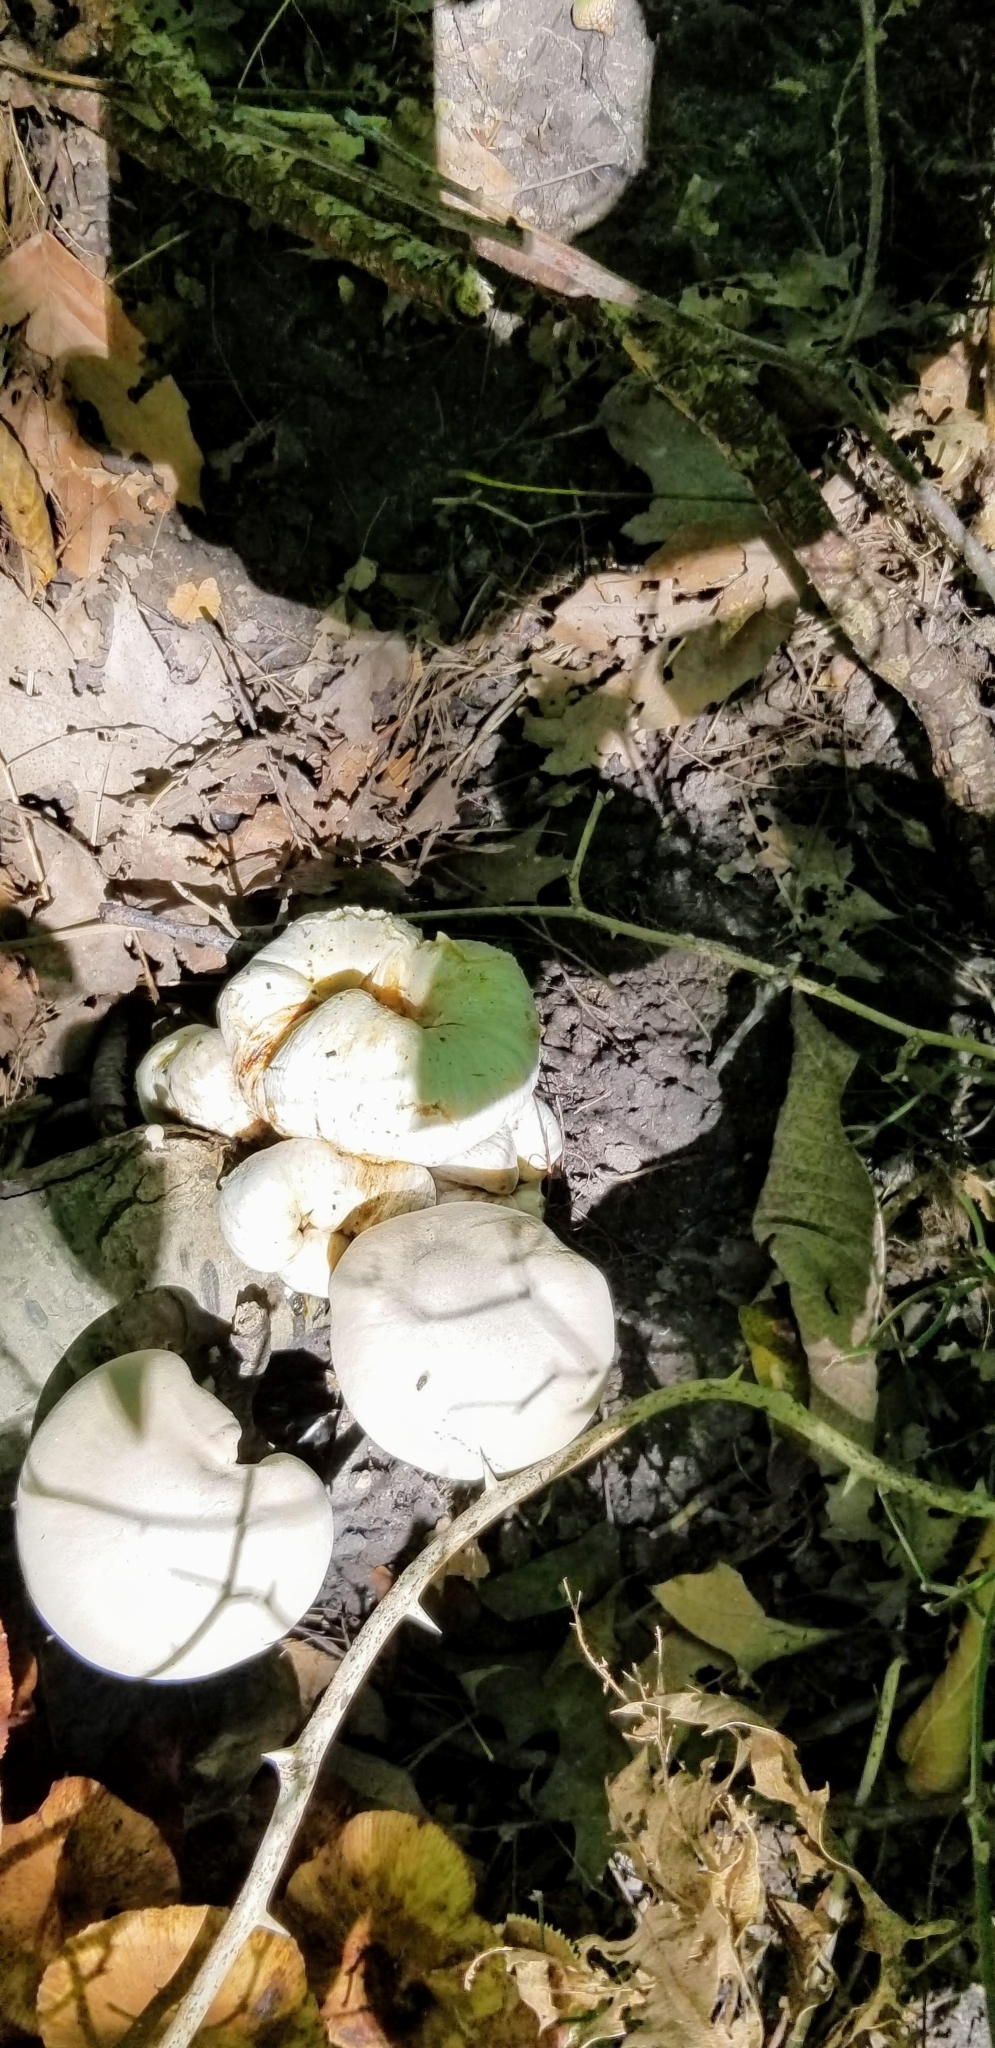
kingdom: Fungi
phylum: Basidiomycota
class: Agaricomycetes
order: Agaricales
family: Entolomataceae
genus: Entoloma
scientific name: Entoloma abortivum
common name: Aborted entoloma
